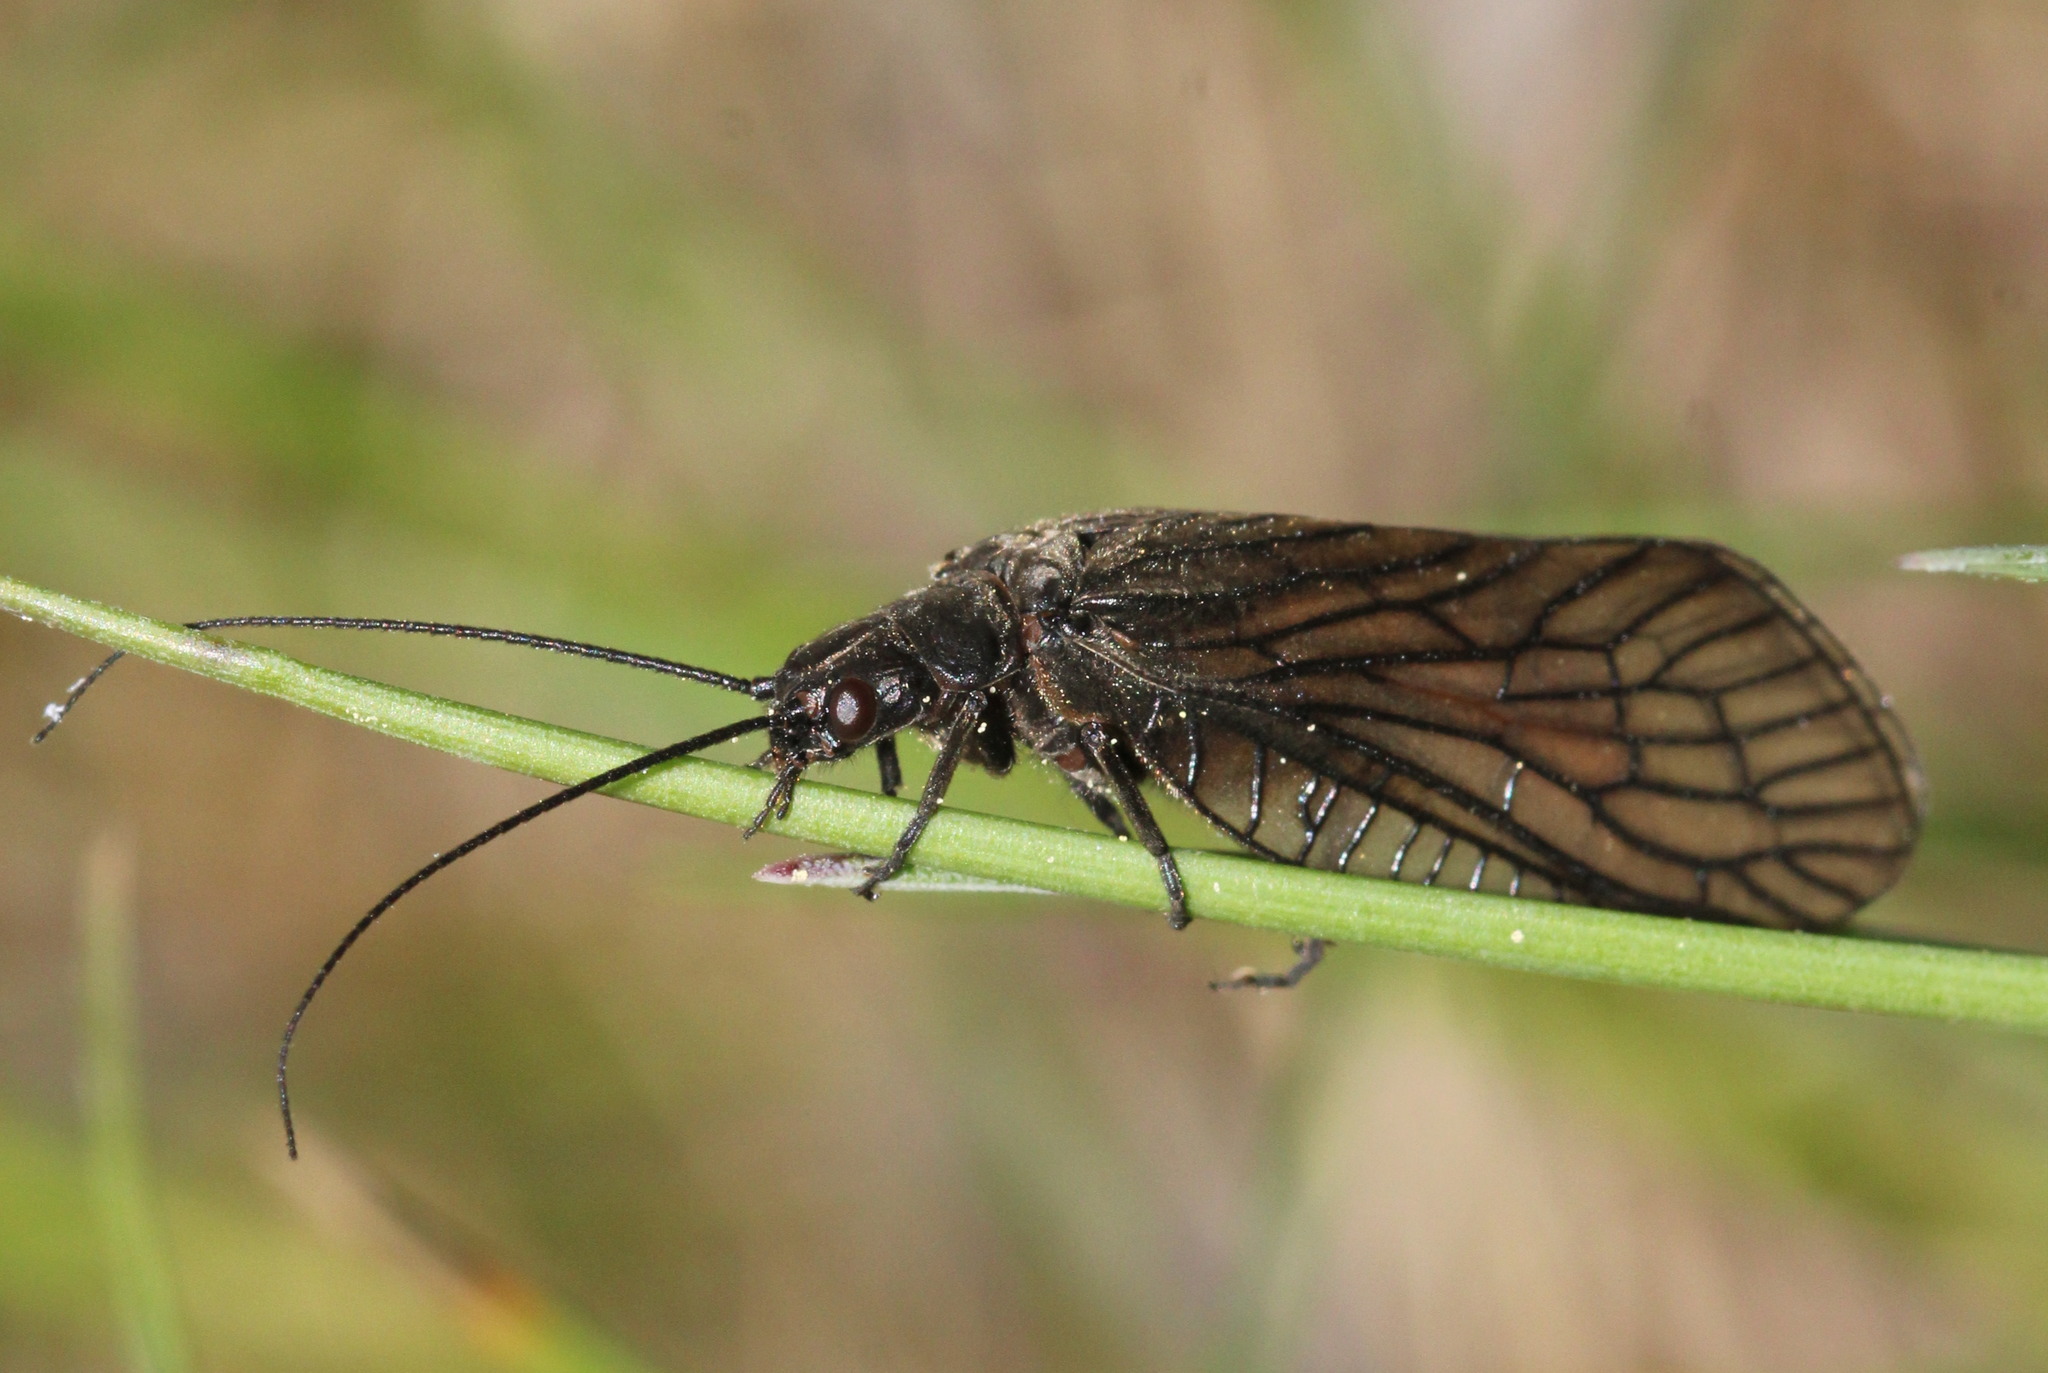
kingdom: Animalia
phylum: Arthropoda
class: Insecta
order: Megaloptera
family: Sialidae
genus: Sialis
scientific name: Sialis lutaria
